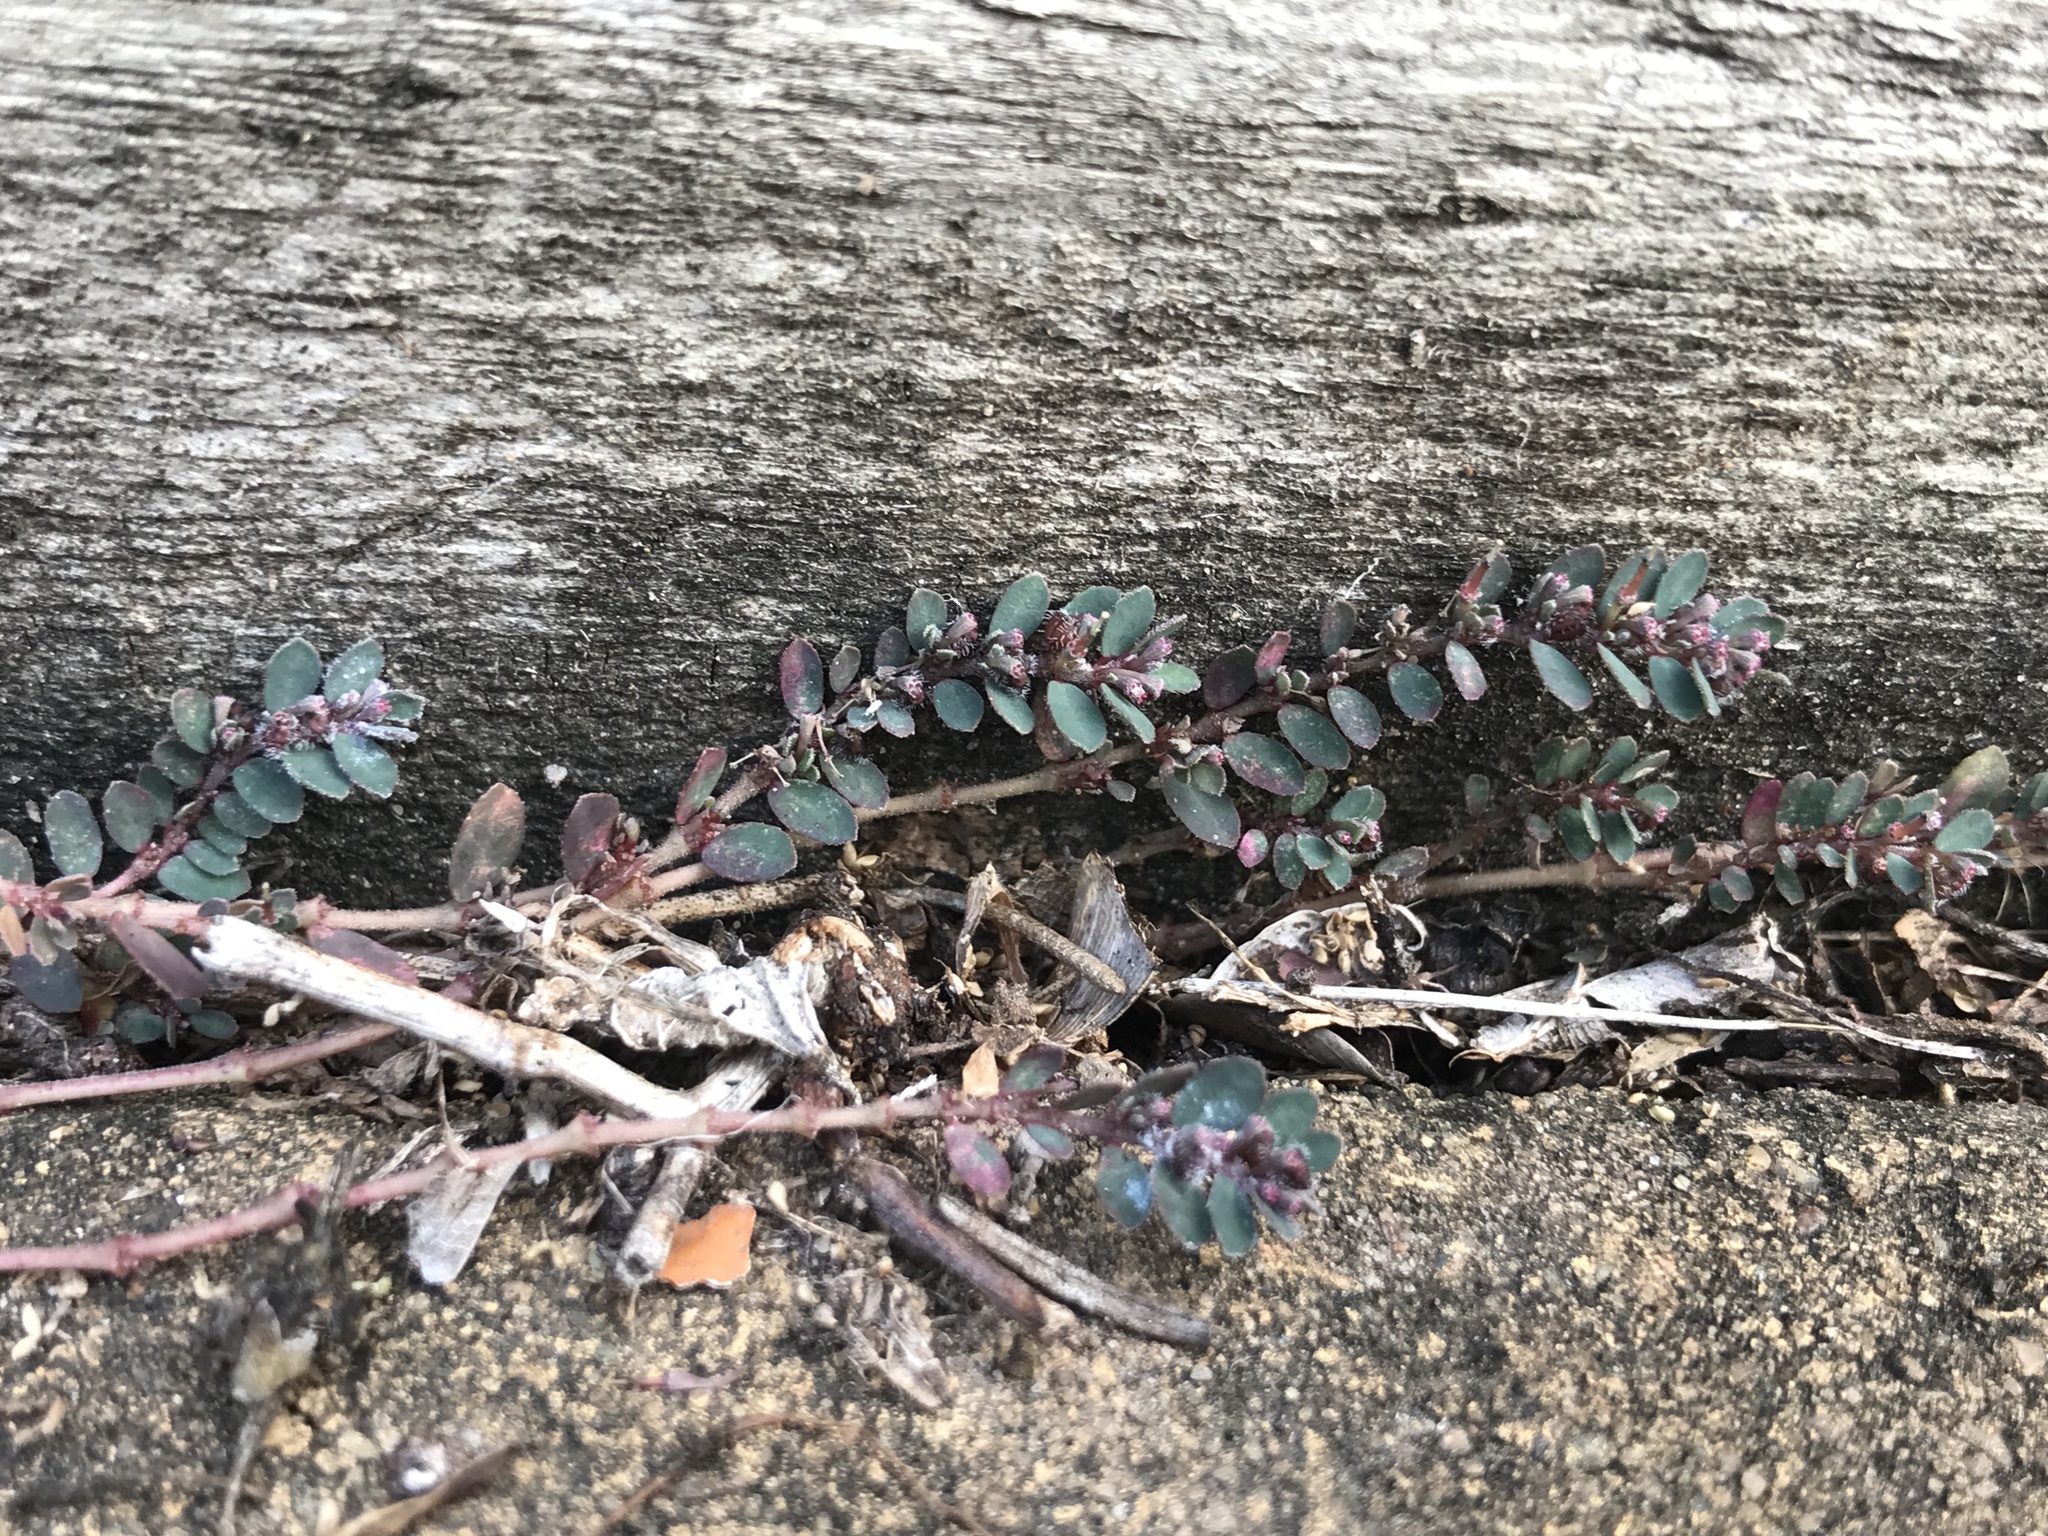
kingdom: Plantae
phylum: Tracheophyta
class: Magnoliopsida
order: Malpighiales
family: Euphorbiaceae
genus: Euphorbia
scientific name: Euphorbia prostrata
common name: Prostrate sandmat
